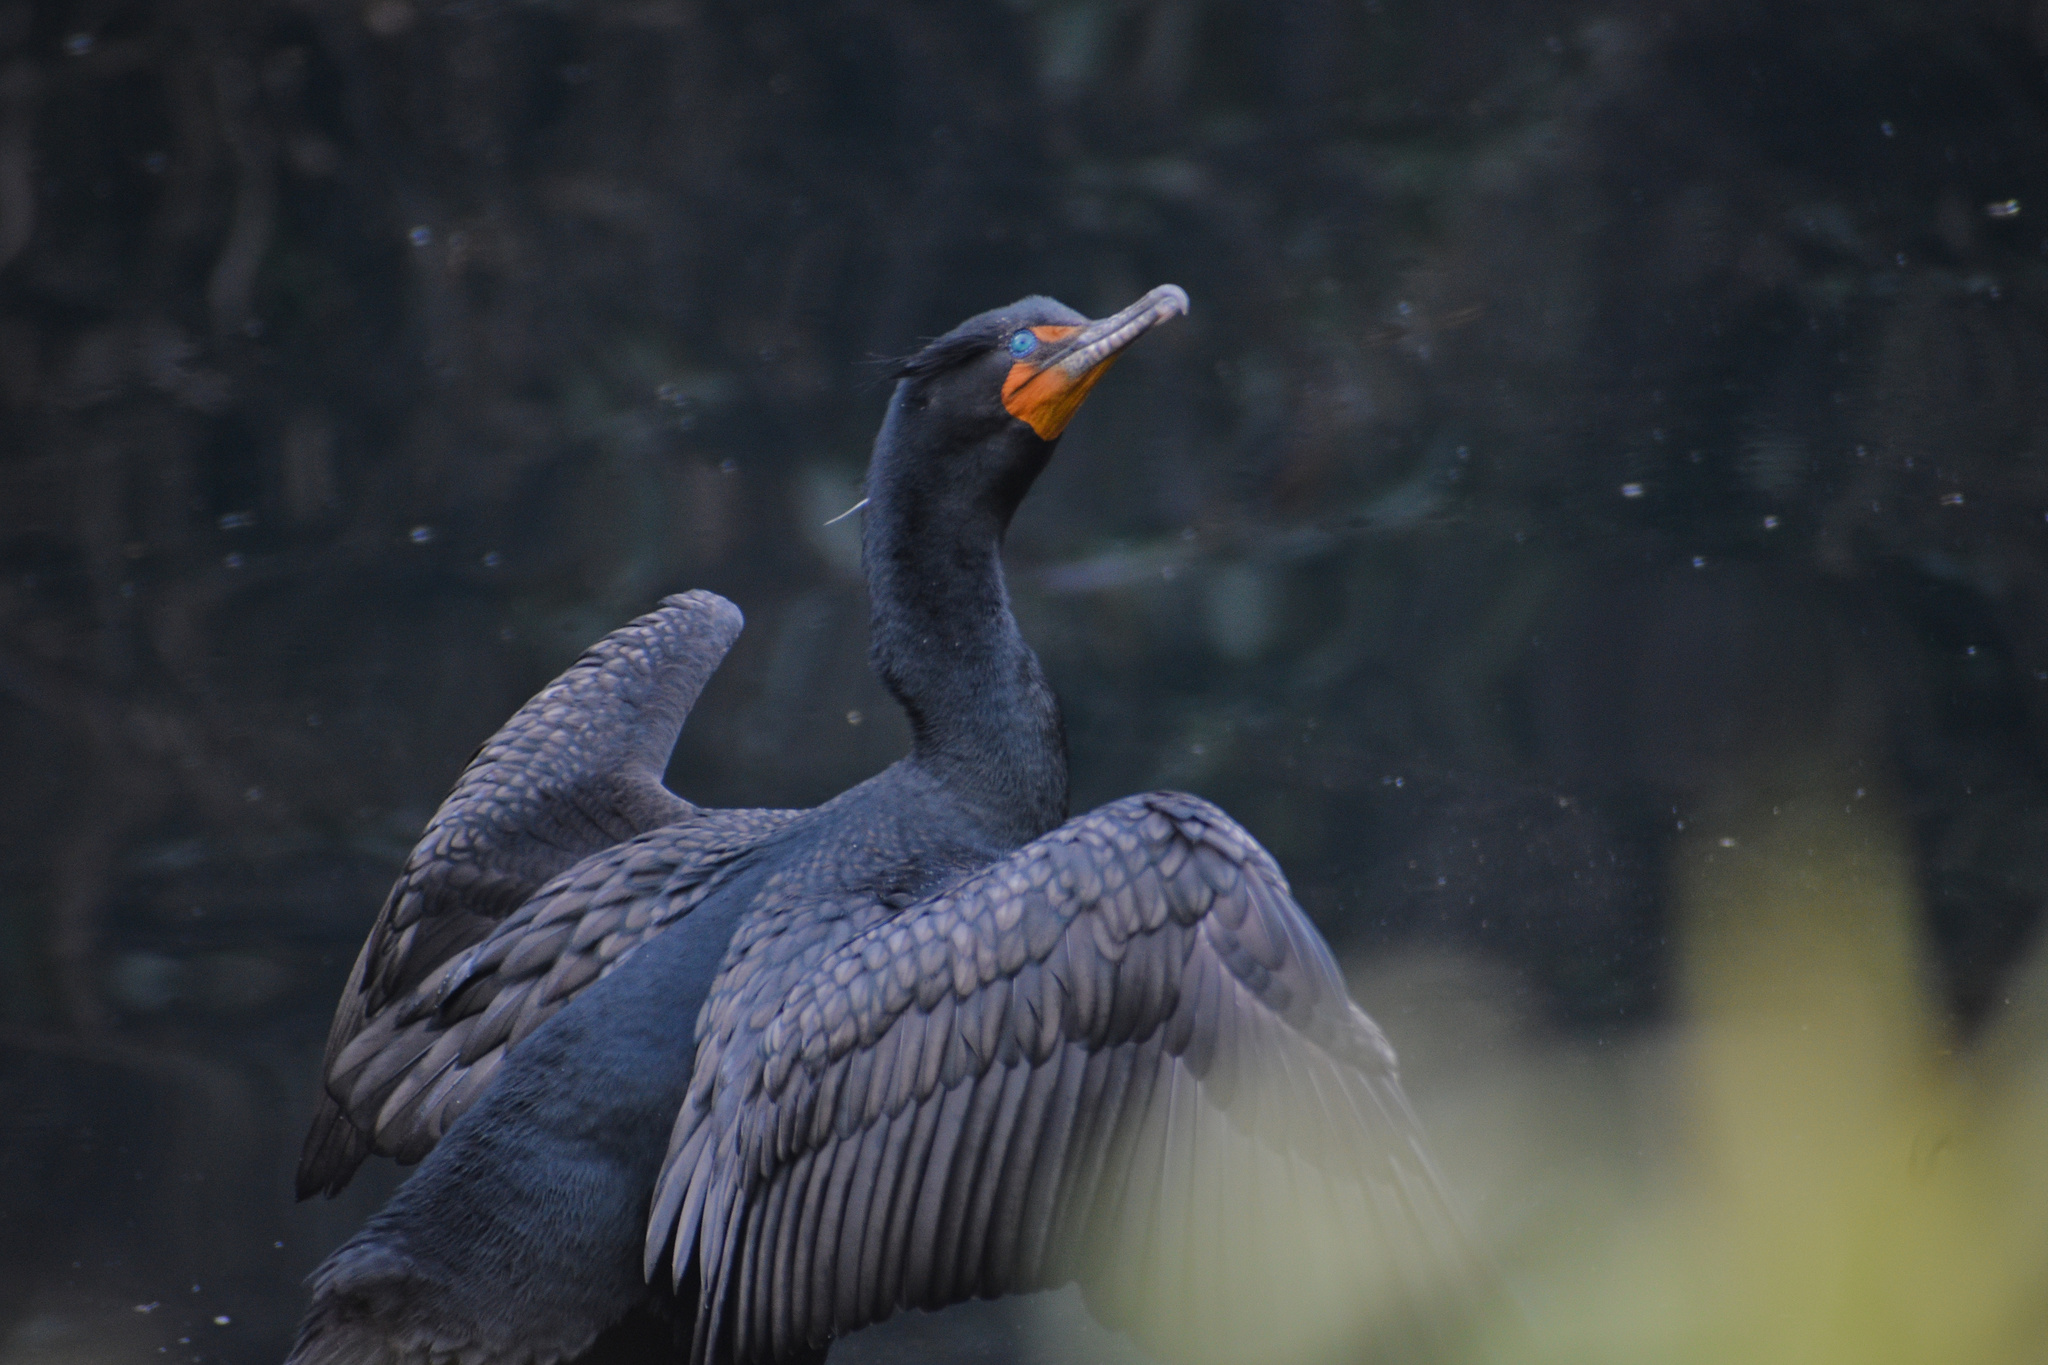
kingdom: Animalia
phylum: Chordata
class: Aves
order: Suliformes
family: Phalacrocoracidae
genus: Phalacrocorax
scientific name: Phalacrocorax auritus
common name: Double-crested cormorant
